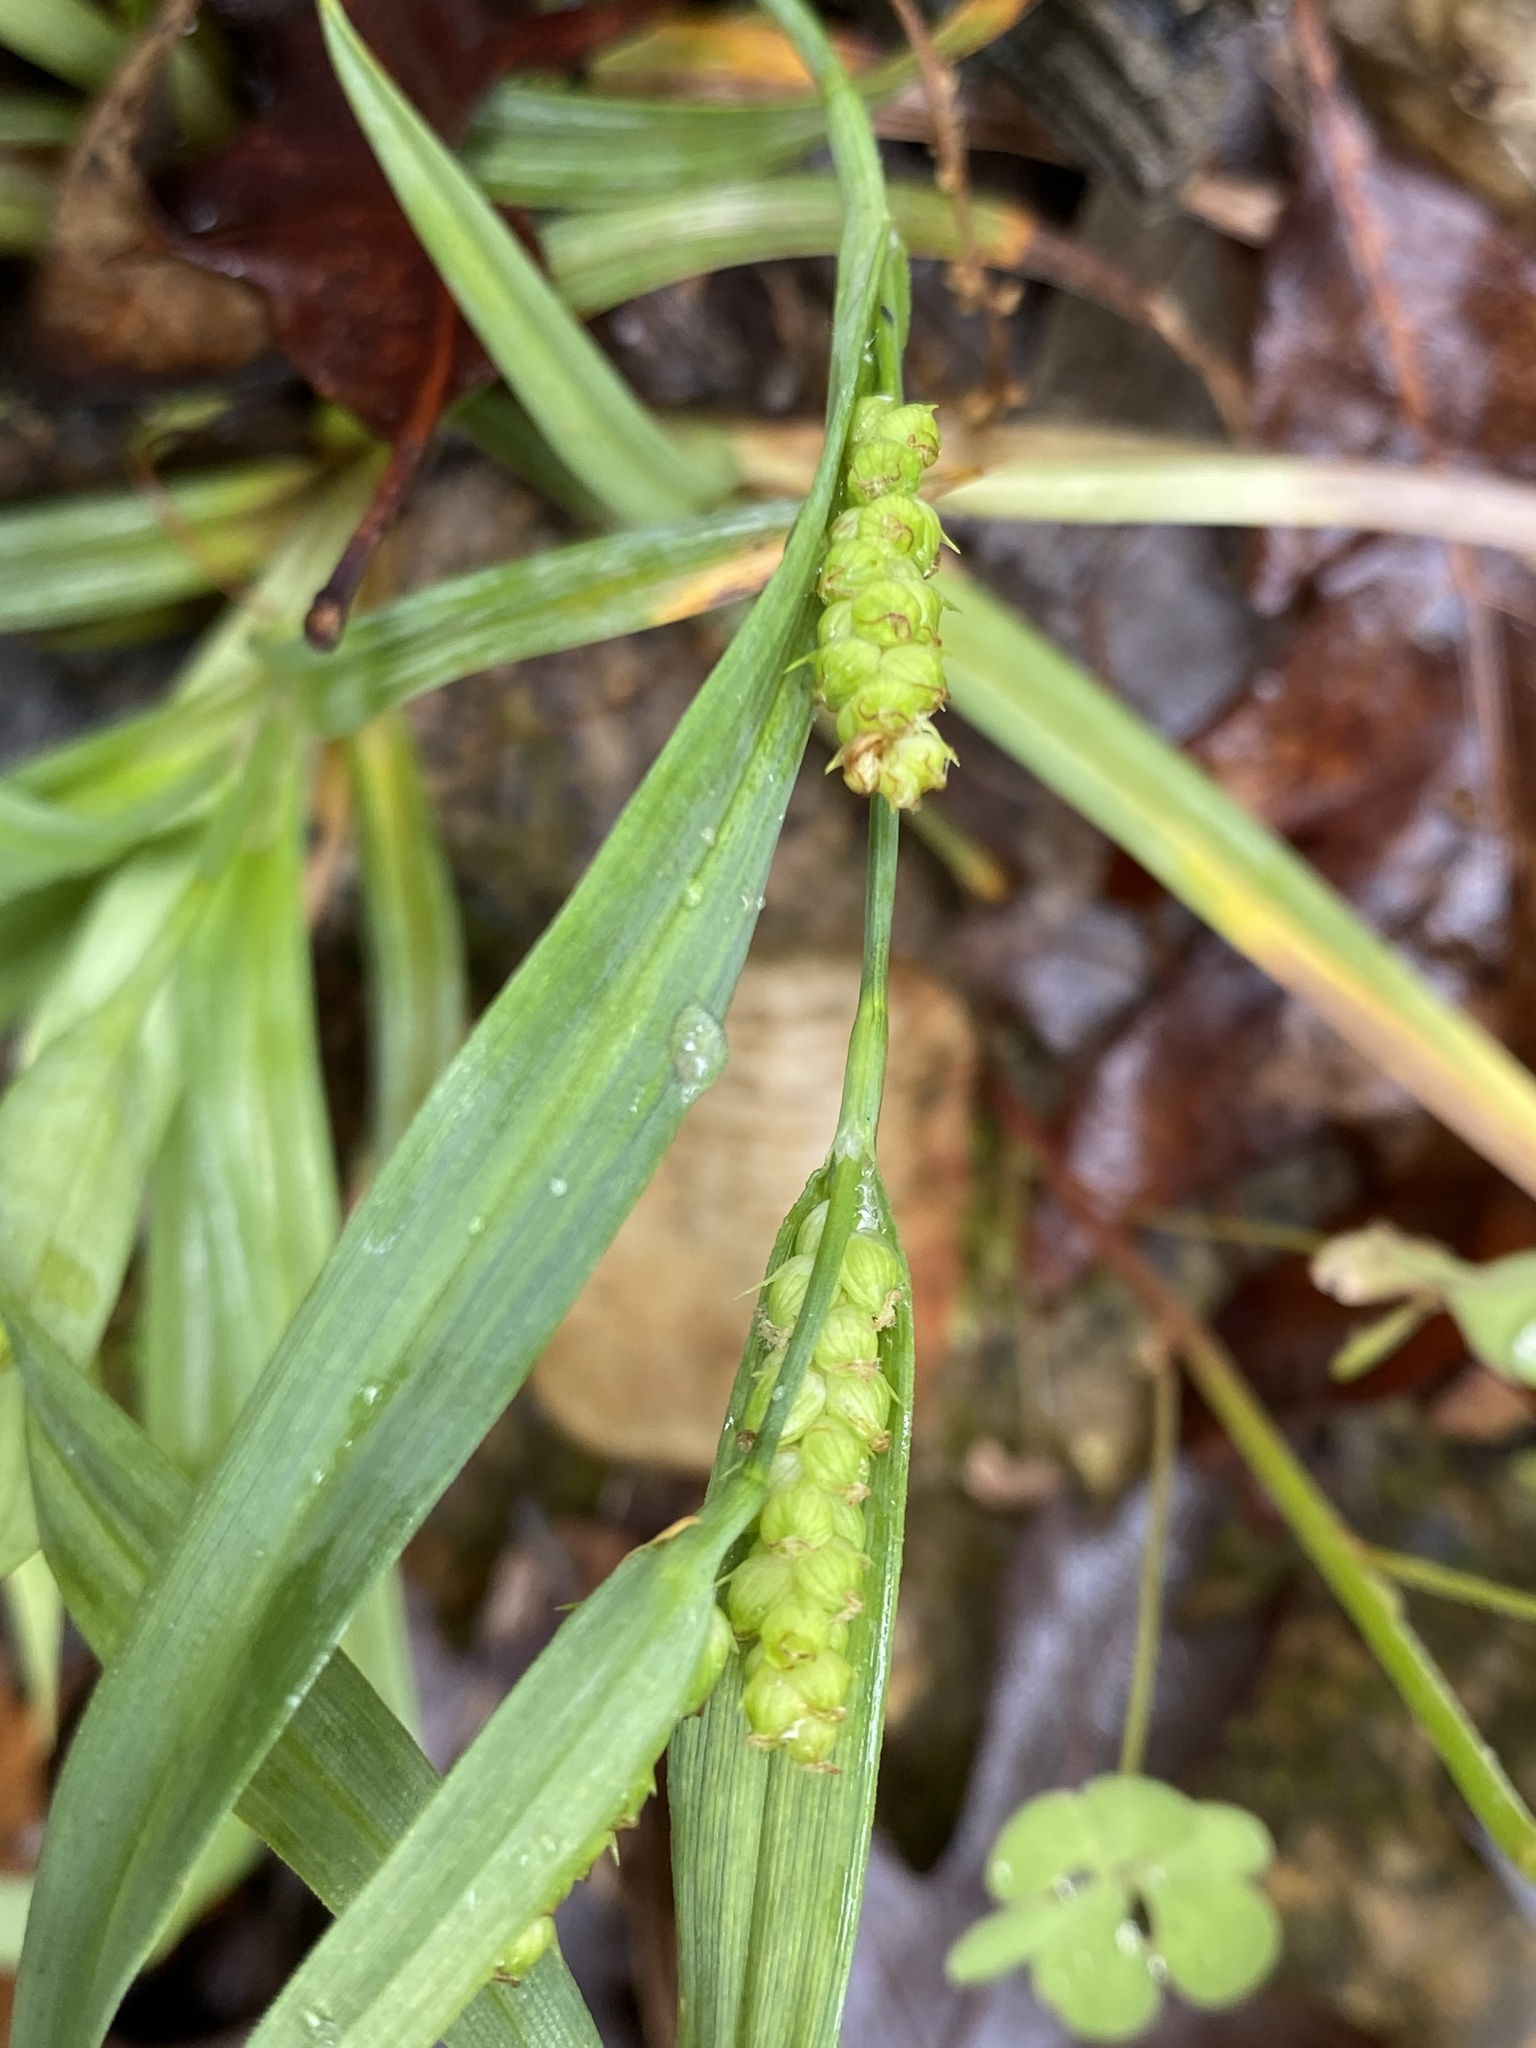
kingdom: Plantae
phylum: Tracheophyta
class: Liliopsida
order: Poales
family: Cyperaceae
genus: Carex
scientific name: Carex glaucodea
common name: Blue sedge
